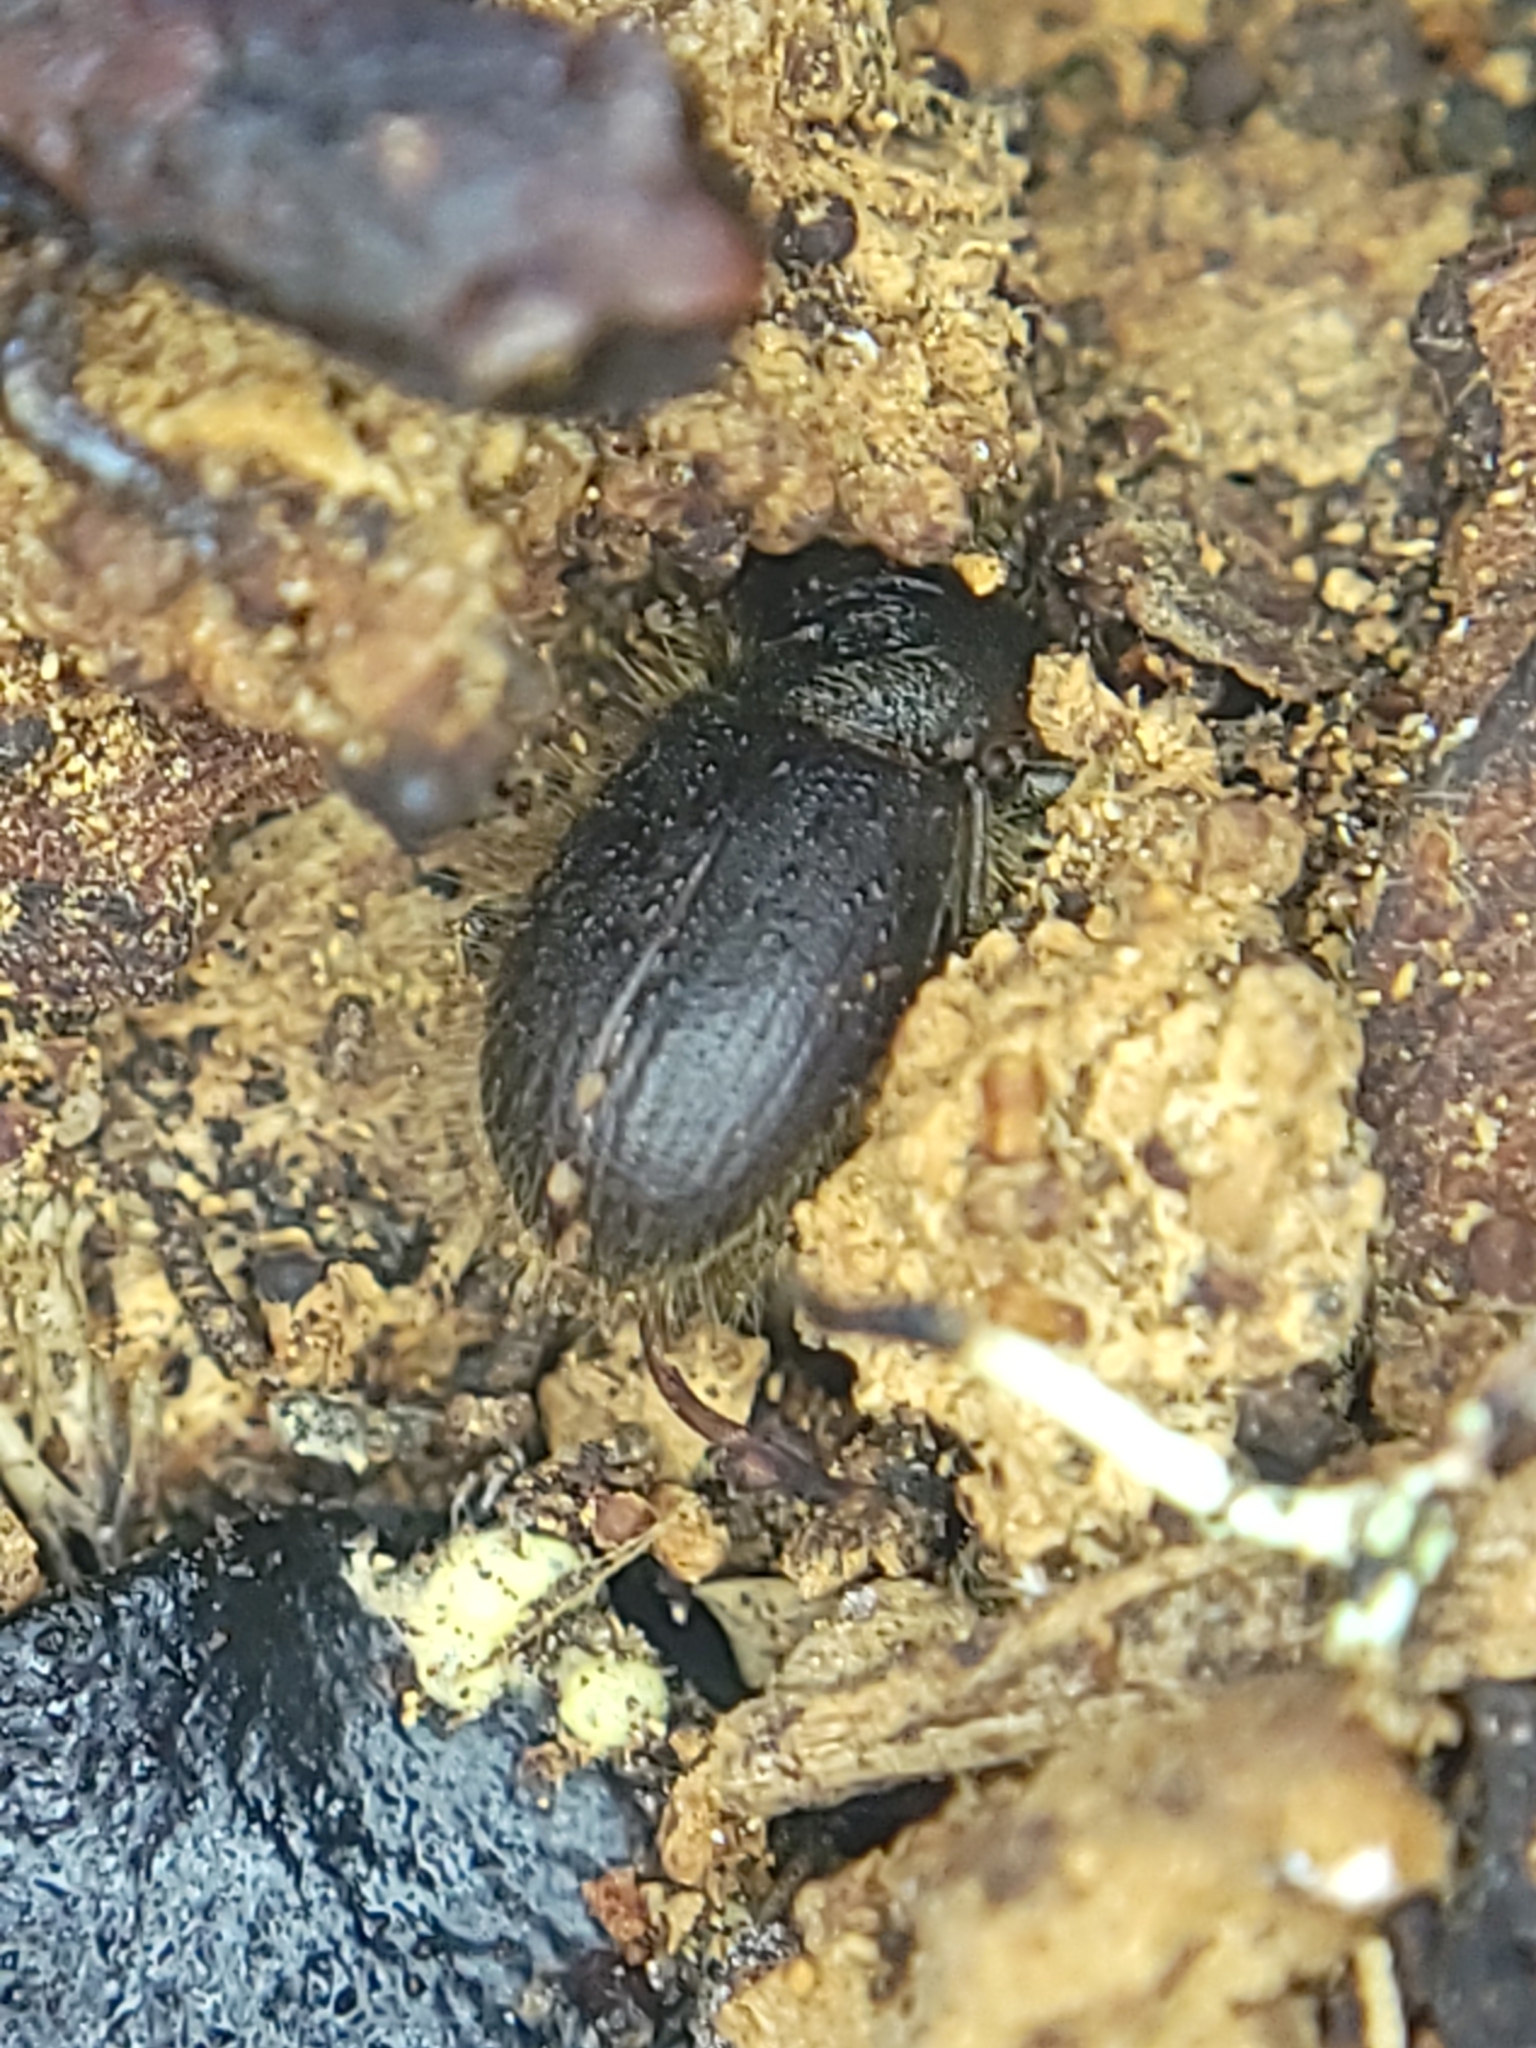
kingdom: Animalia
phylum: Arthropoda
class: Insecta
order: Coleoptera
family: Tenebrionidae
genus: Eleodes
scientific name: Eleodes littoralis
